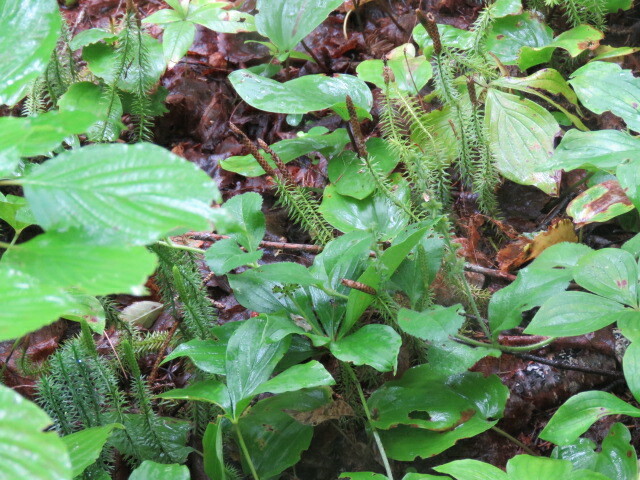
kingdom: Plantae
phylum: Tracheophyta
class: Lycopodiopsida
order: Lycopodiales
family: Lycopodiaceae
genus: Spinulum
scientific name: Spinulum annotinum
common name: Interrupted club-moss
